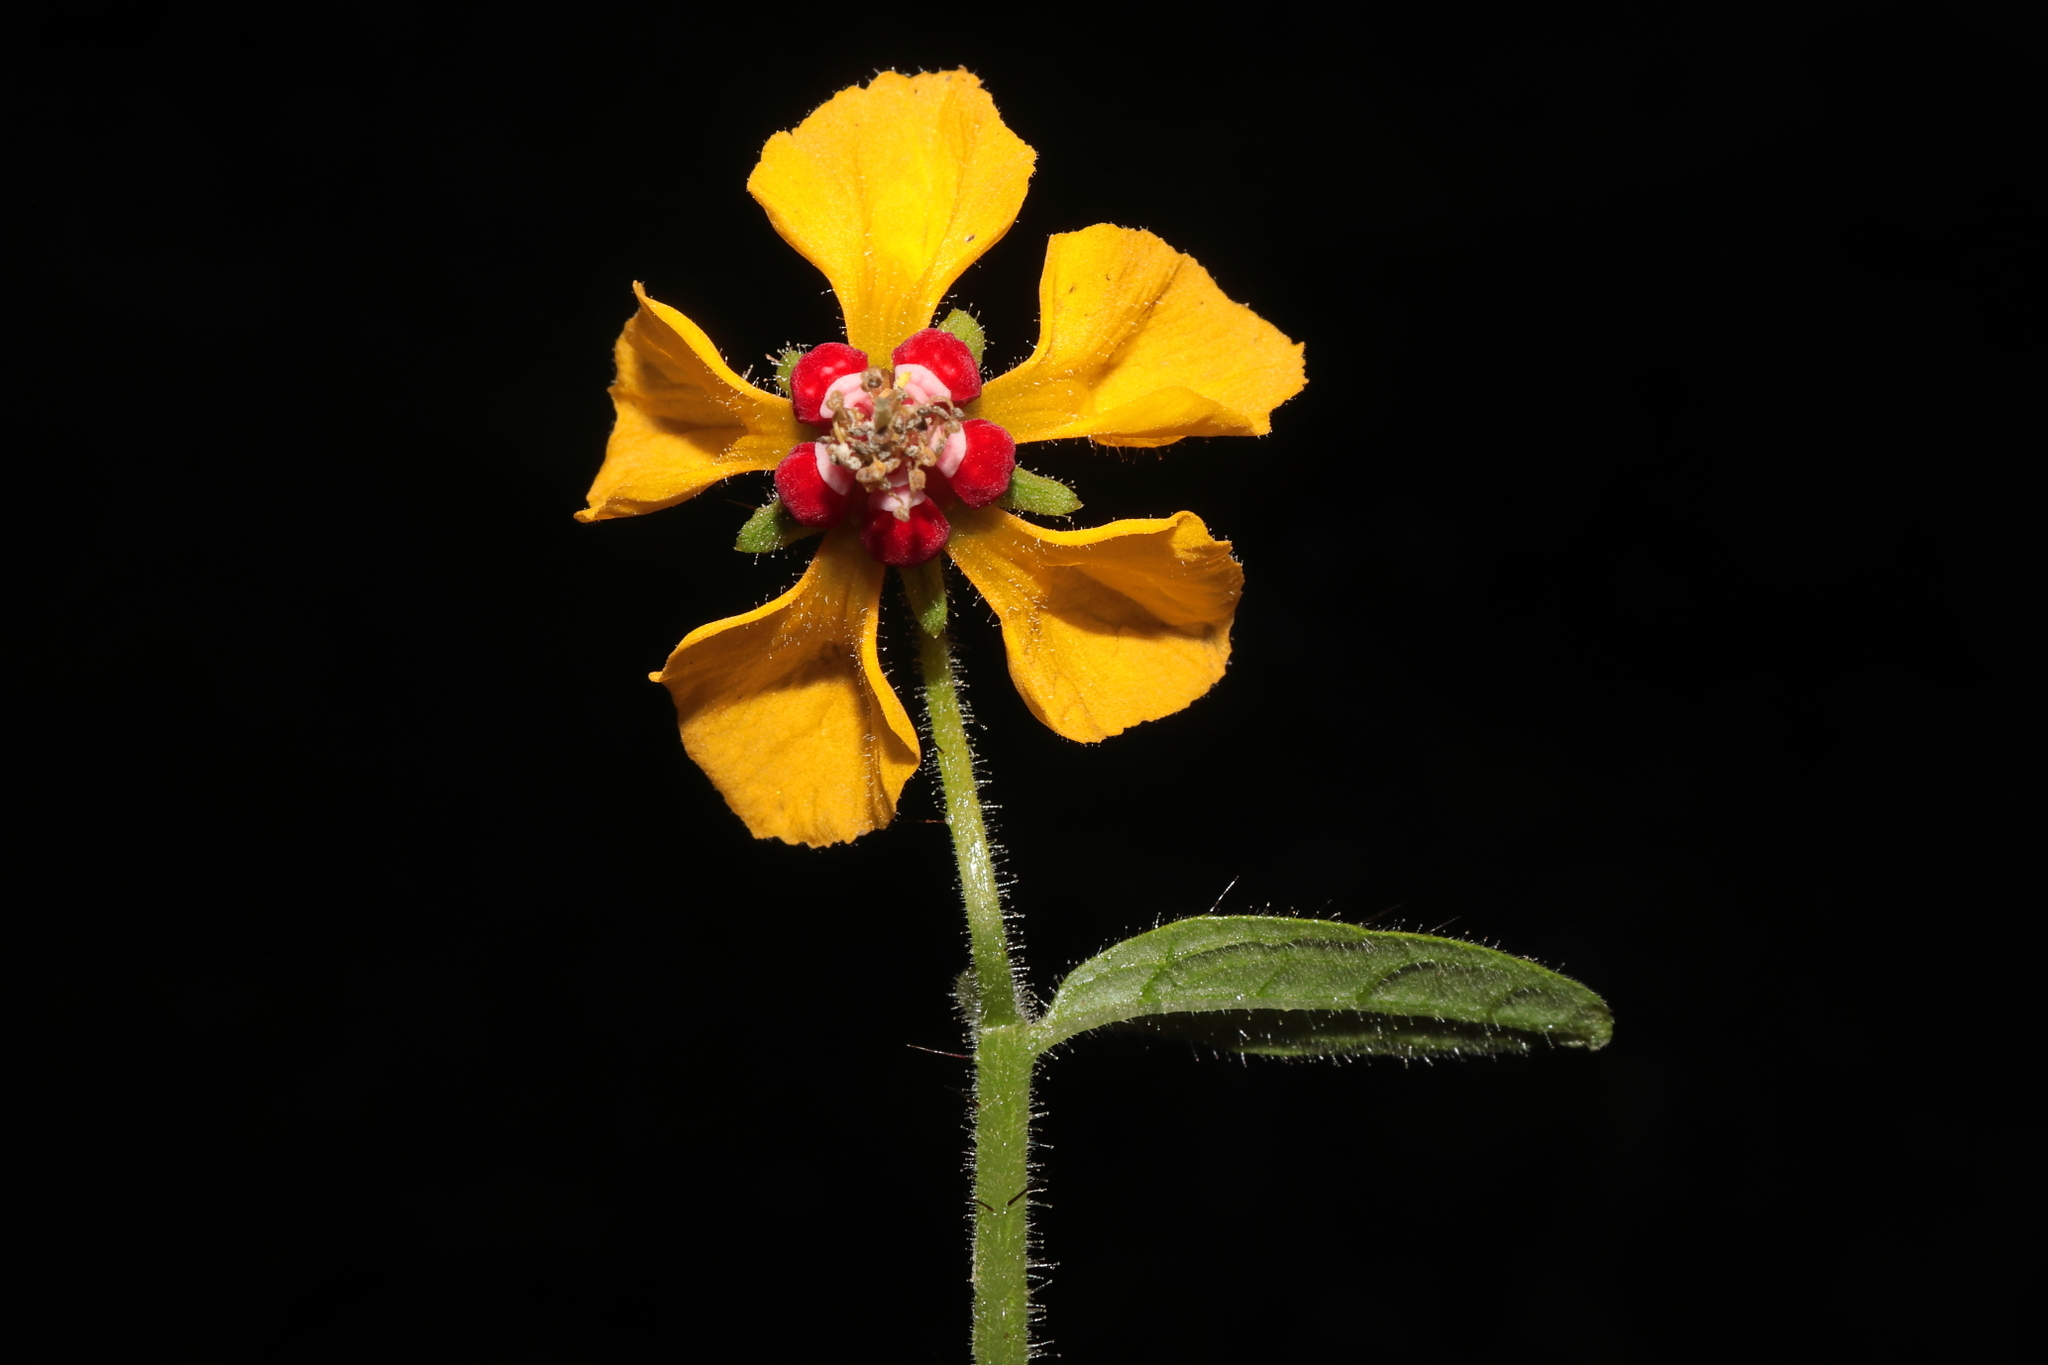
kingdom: Plantae
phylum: Tracheophyta
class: Magnoliopsida
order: Cornales
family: Loasaceae
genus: Nasa
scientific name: Nasa solaria
